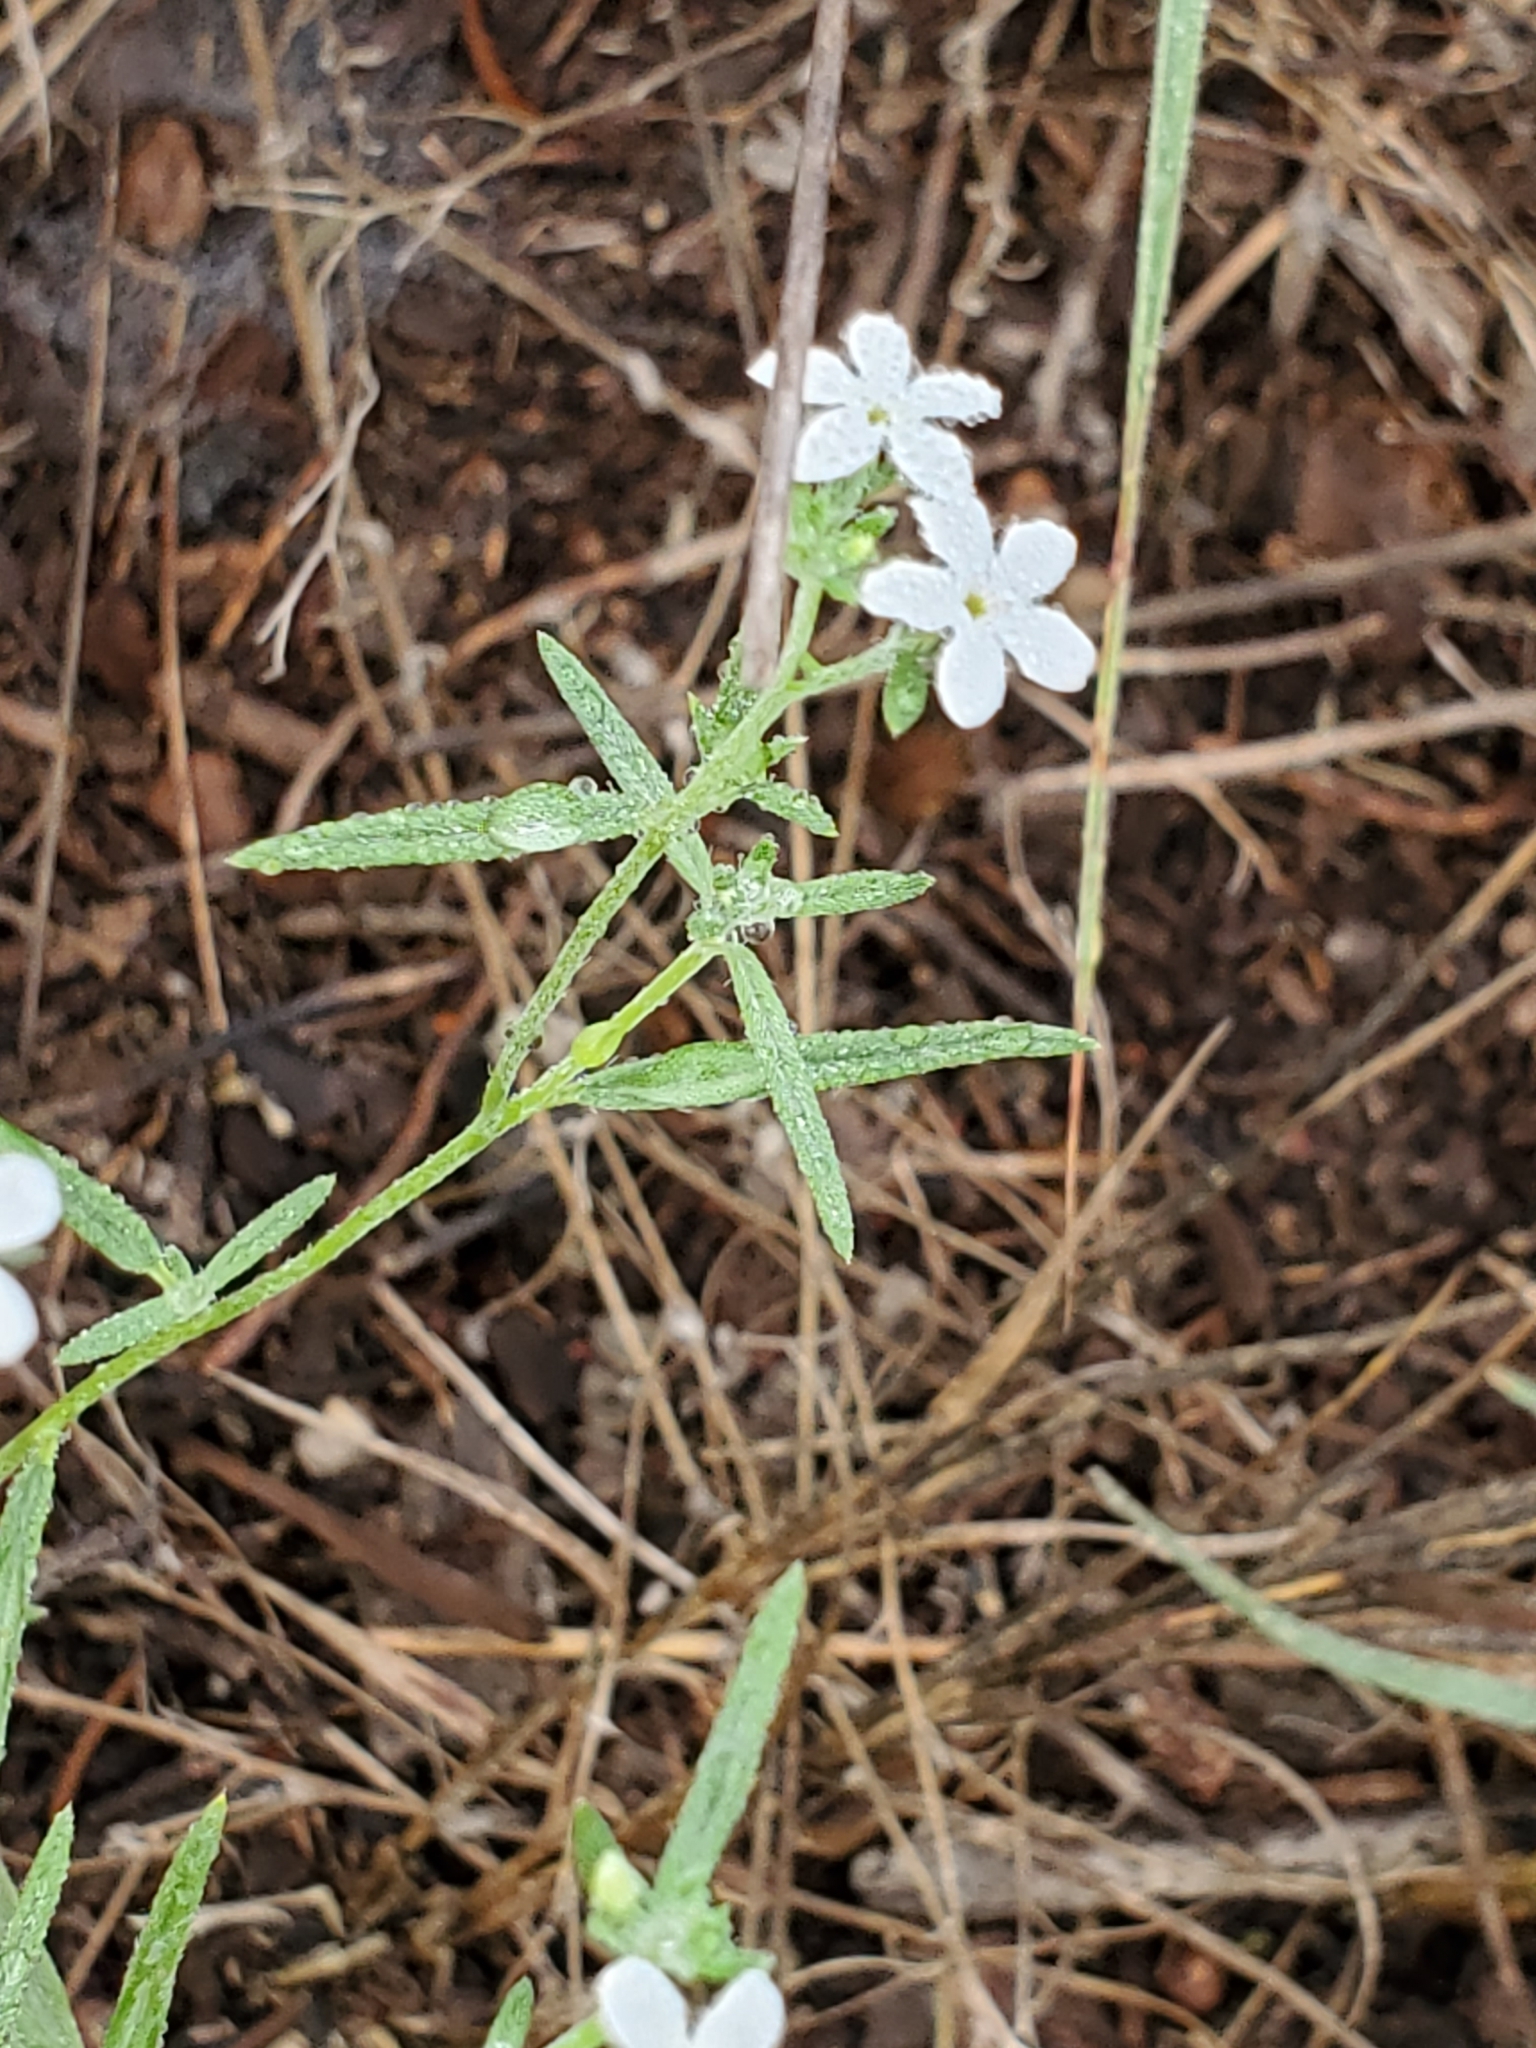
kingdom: Plantae
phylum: Tracheophyta
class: Magnoliopsida
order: Boraginales
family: Heliotropiaceae
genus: Euploca
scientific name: Euploca tenella
